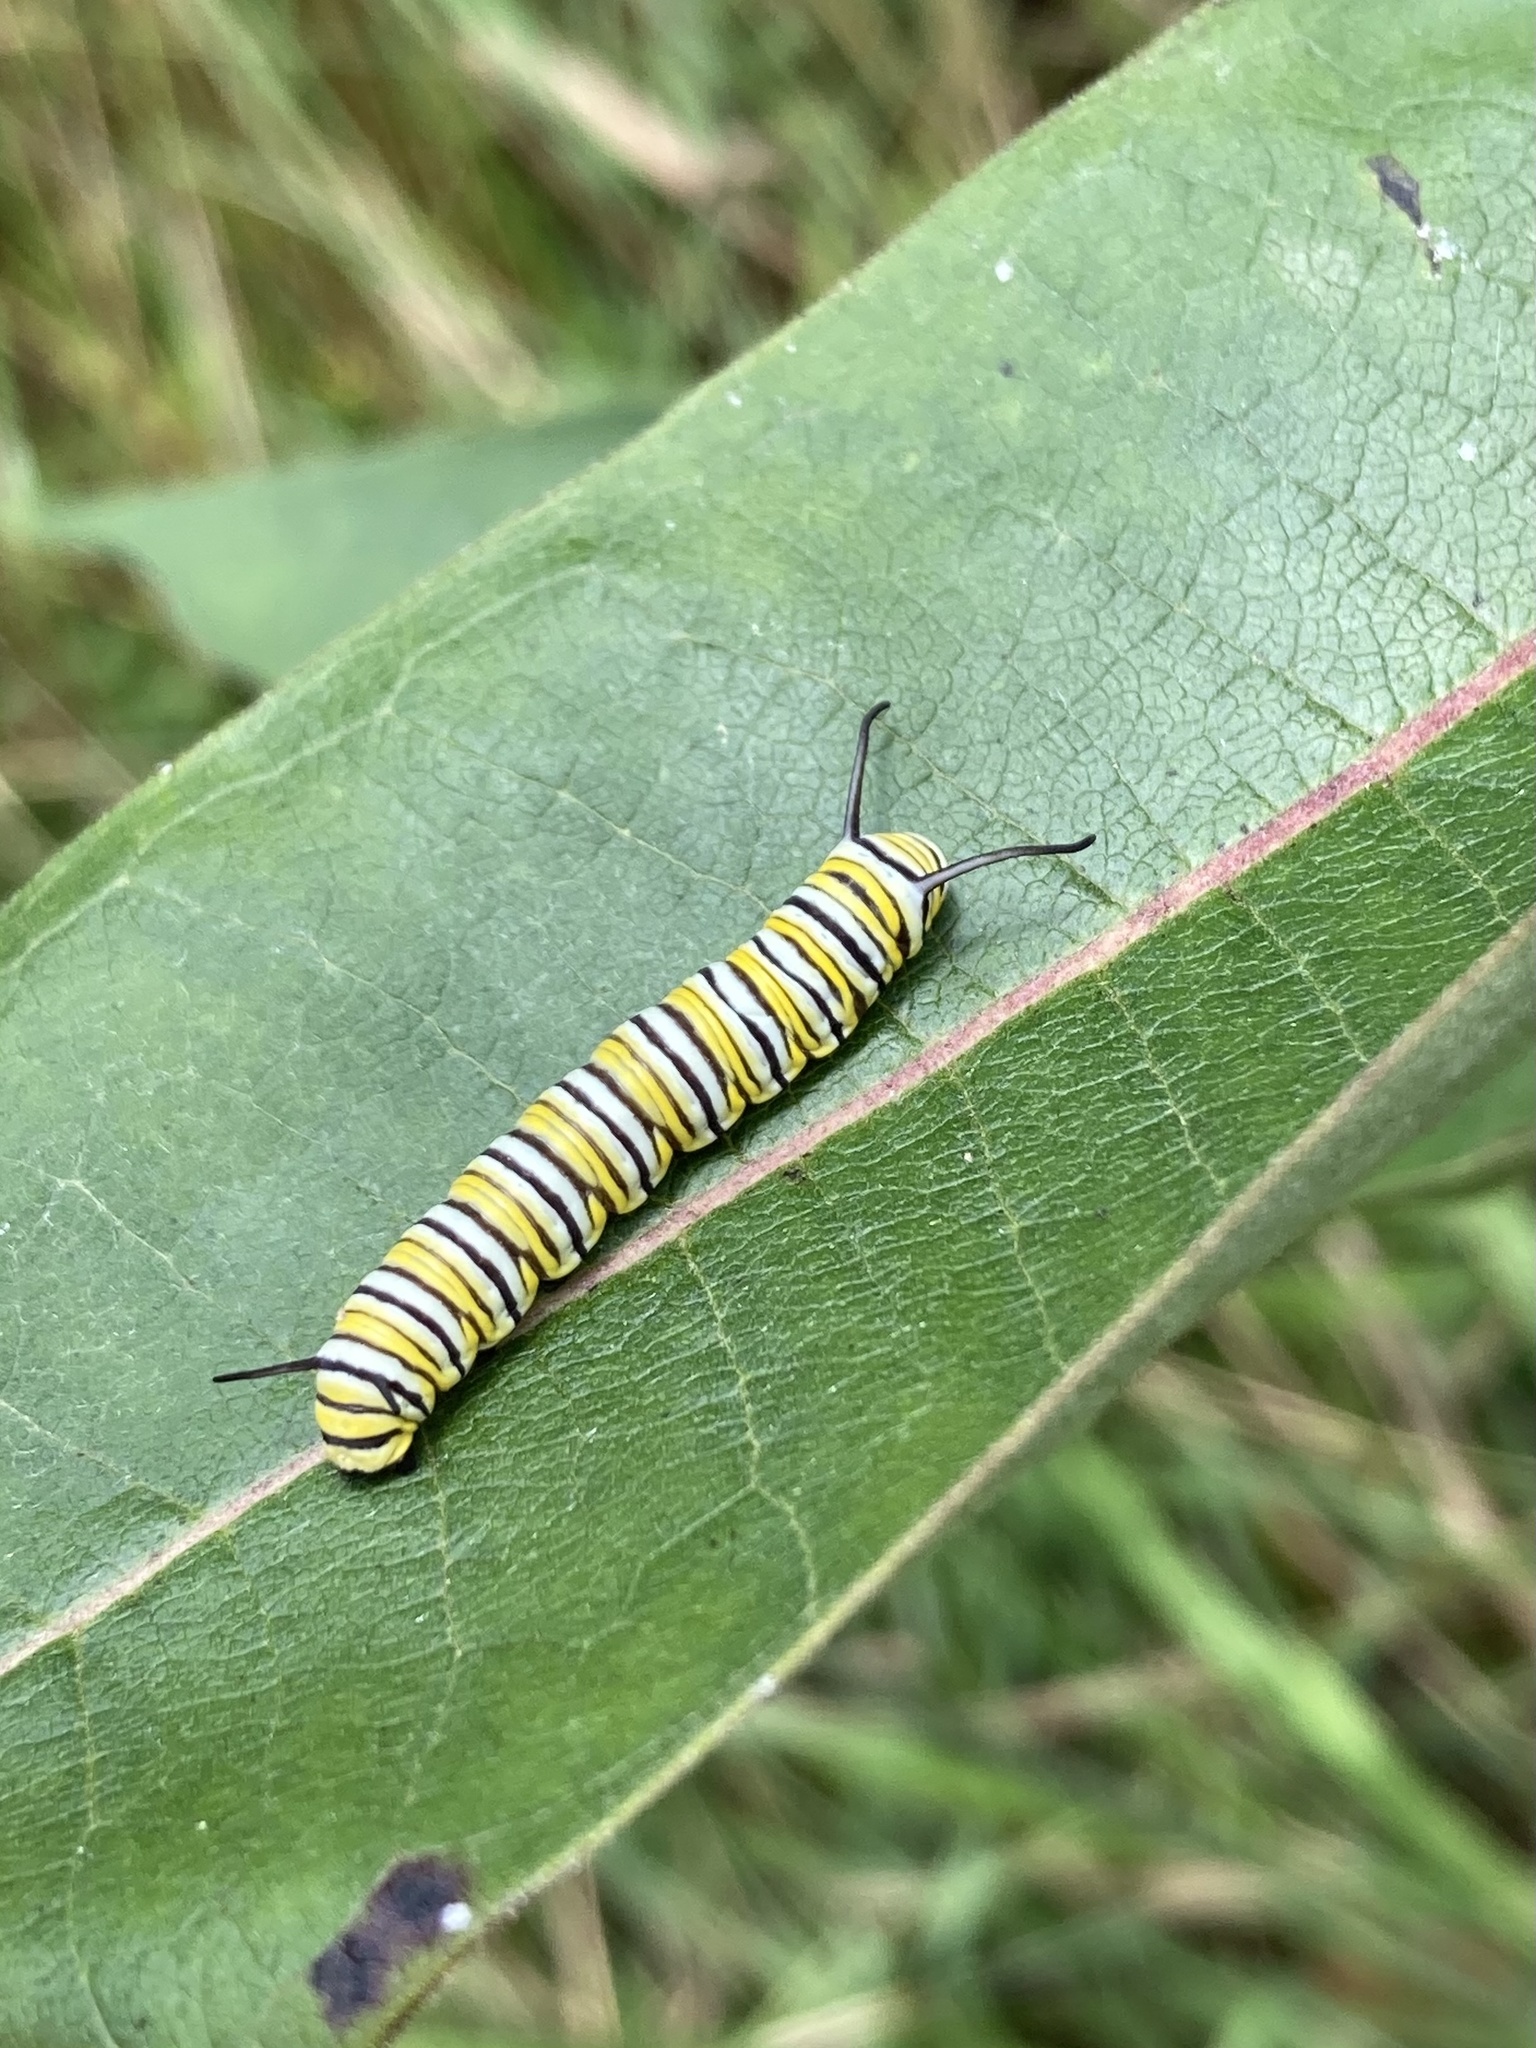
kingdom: Animalia
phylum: Arthropoda
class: Insecta
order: Lepidoptera
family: Nymphalidae
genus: Danaus
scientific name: Danaus plexippus
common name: Monarch
